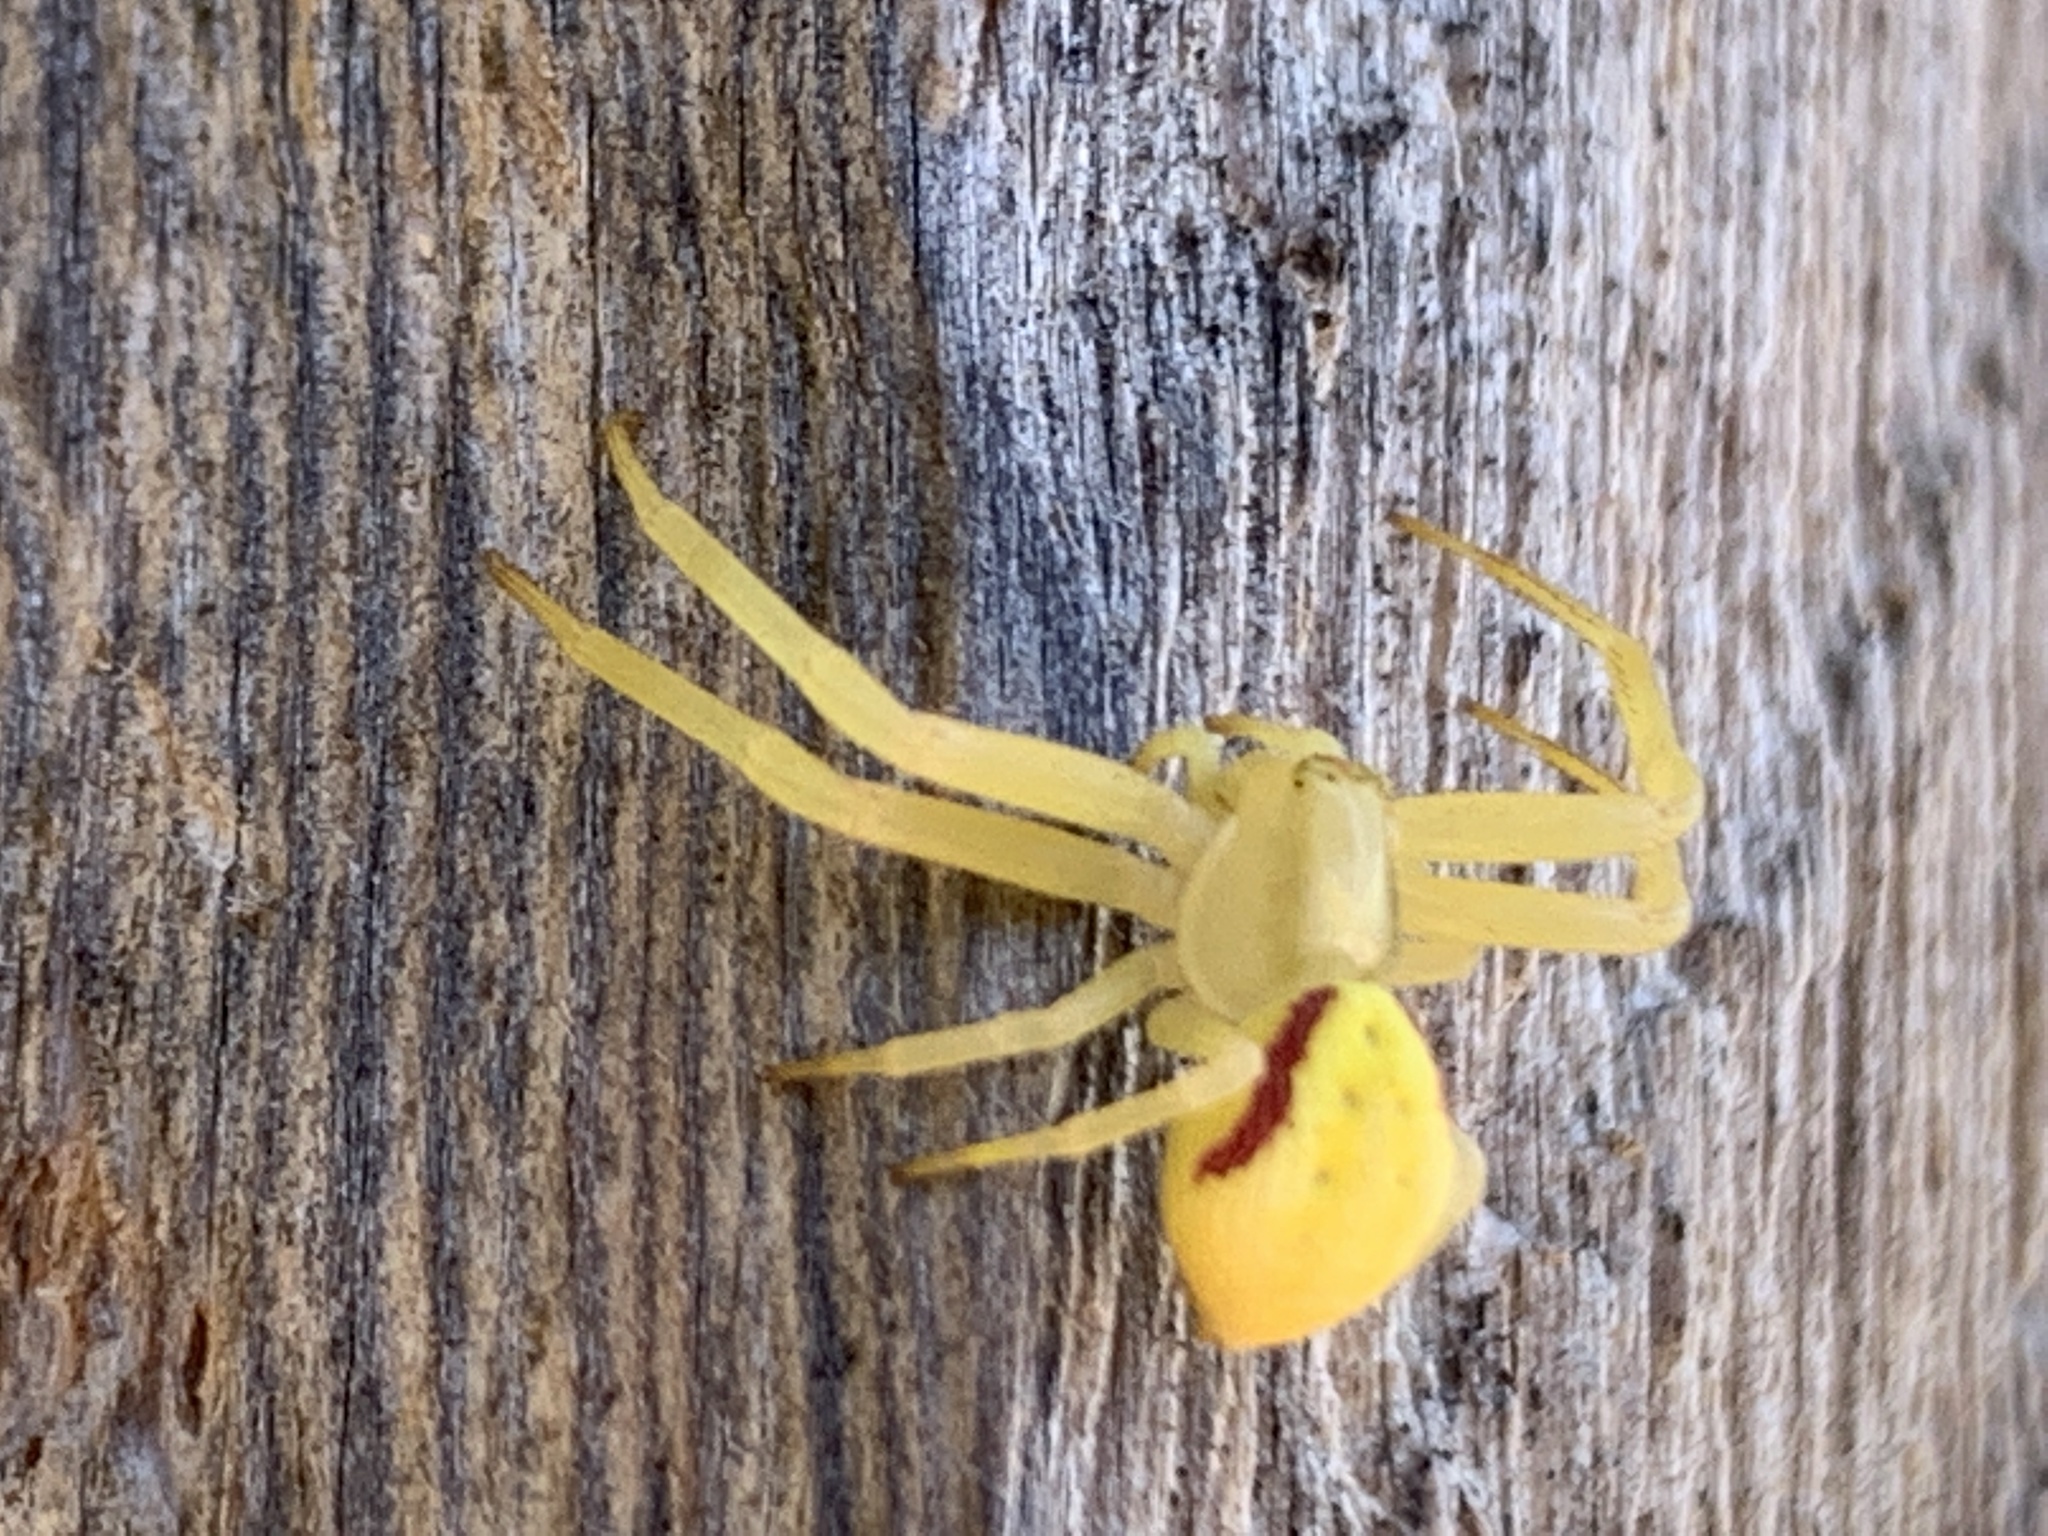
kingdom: Animalia
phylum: Arthropoda
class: Arachnida
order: Araneae
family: Thomisidae
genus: Misumena
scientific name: Misumena vatia
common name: Goldenrod crab spider
